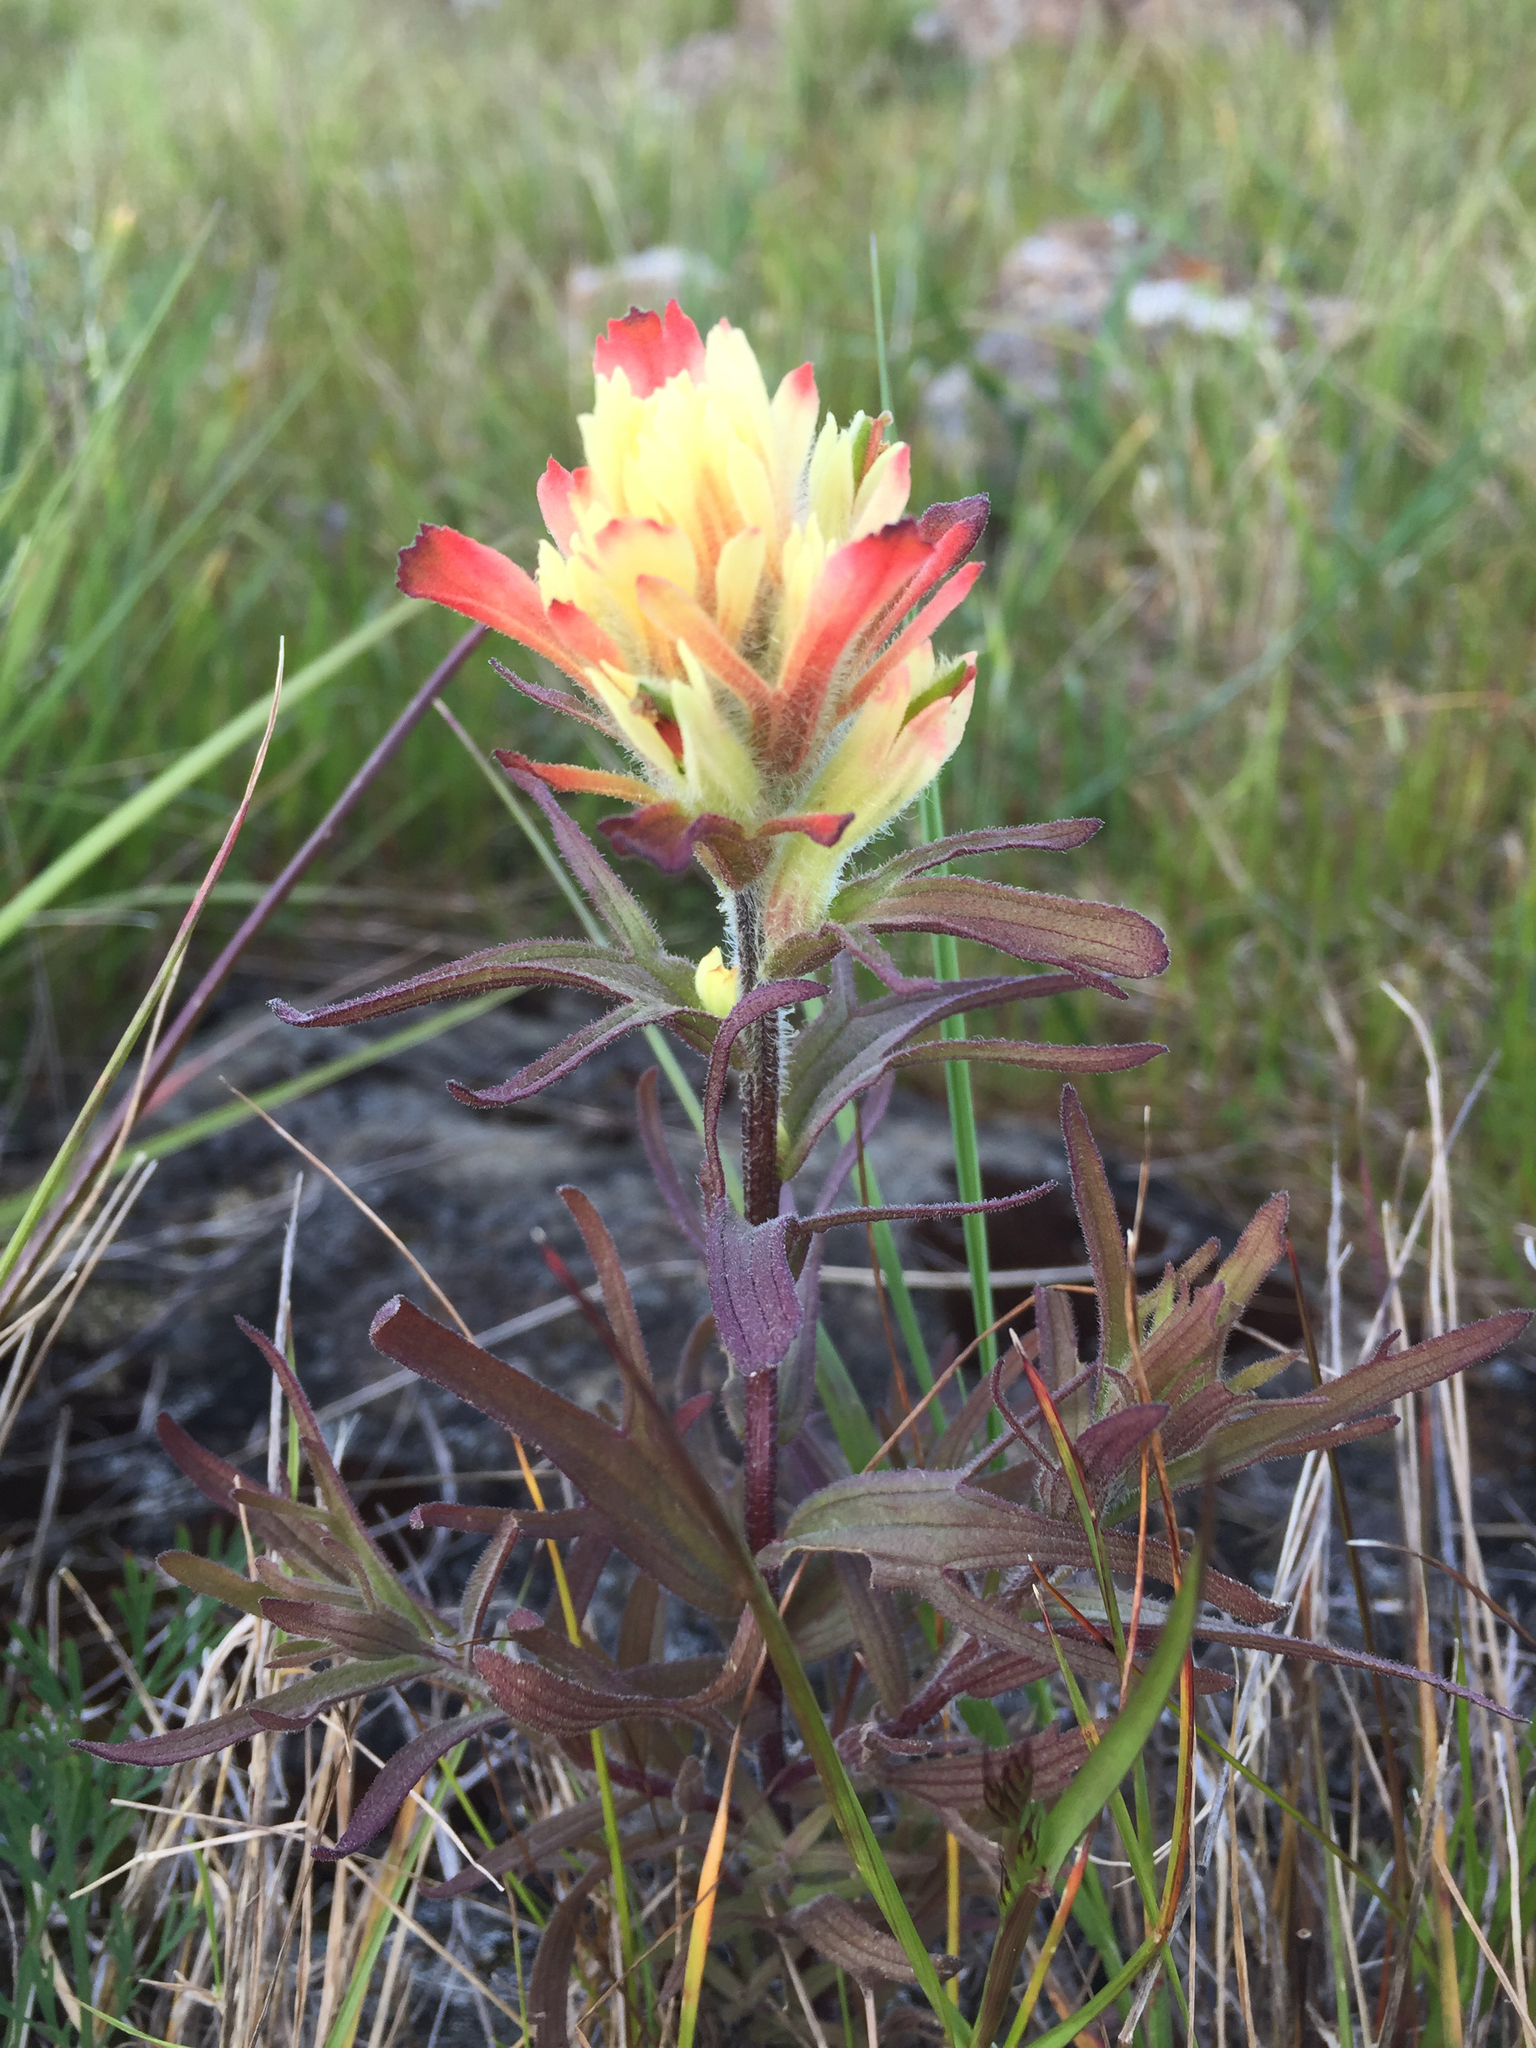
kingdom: Plantae
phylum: Tracheophyta
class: Magnoliopsida
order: Lamiales
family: Orobanchaceae
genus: Castilleja
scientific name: Castilleja affinis
